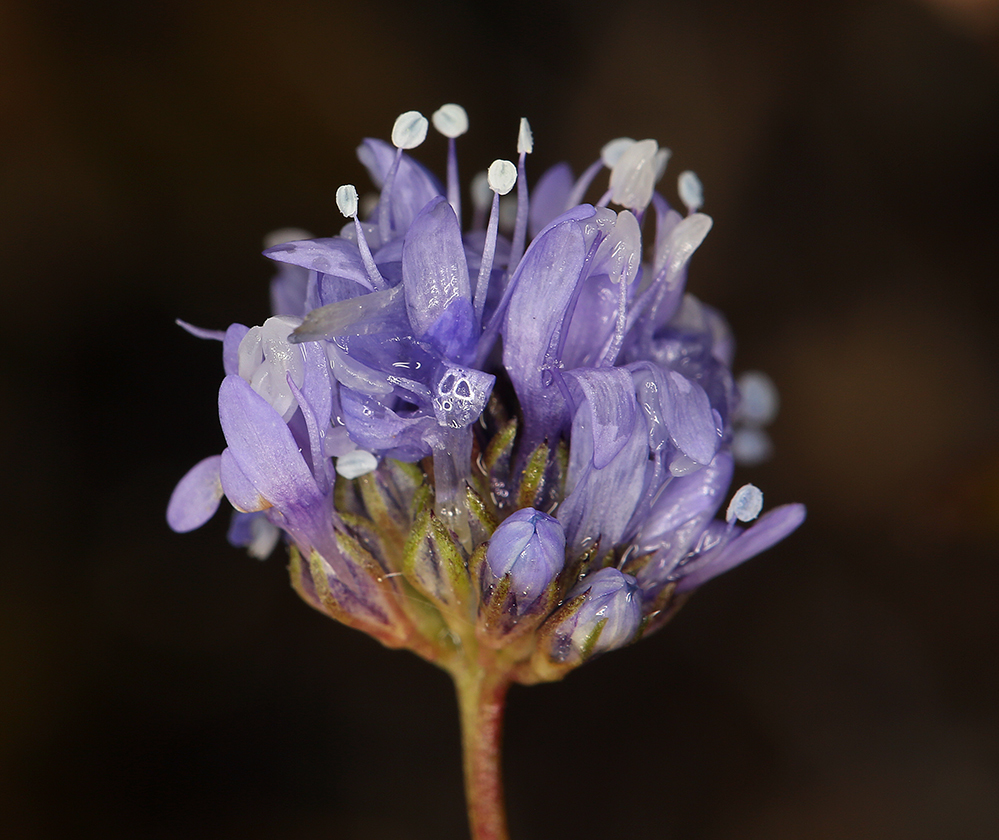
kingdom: Plantae
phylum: Tracheophyta
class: Magnoliopsida
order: Ericales
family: Polemoniaceae
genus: Gilia
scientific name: Gilia capitata
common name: Bluehead gilia
